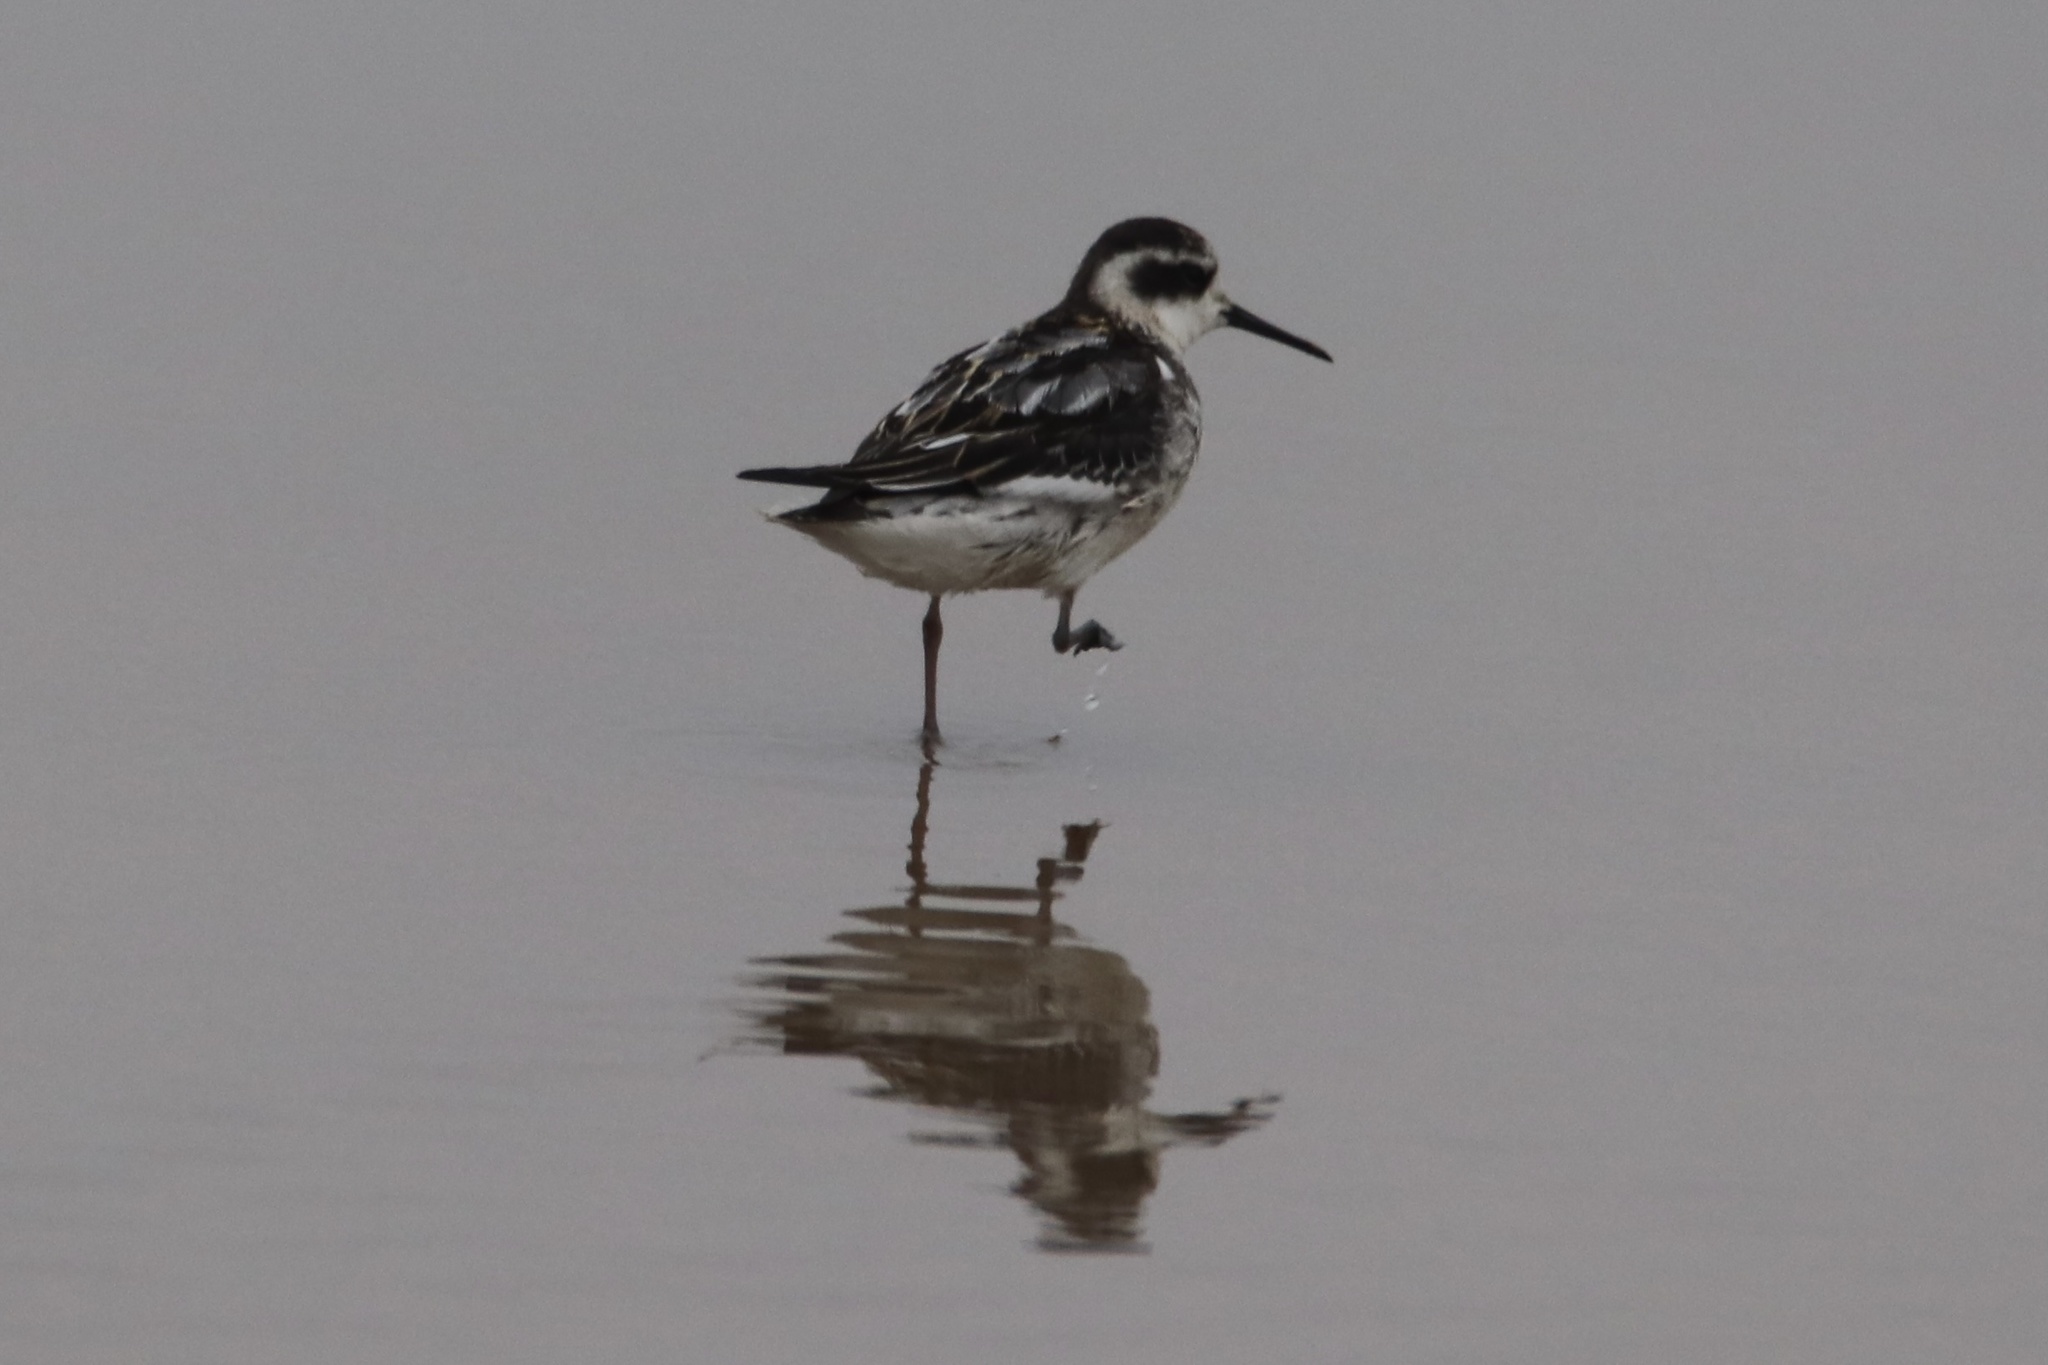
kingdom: Animalia
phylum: Chordata
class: Aves
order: Charadriiformes
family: Scolopacidae
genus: Phalaropus
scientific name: Phalaropus lobatus
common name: Red-necked phalarope
